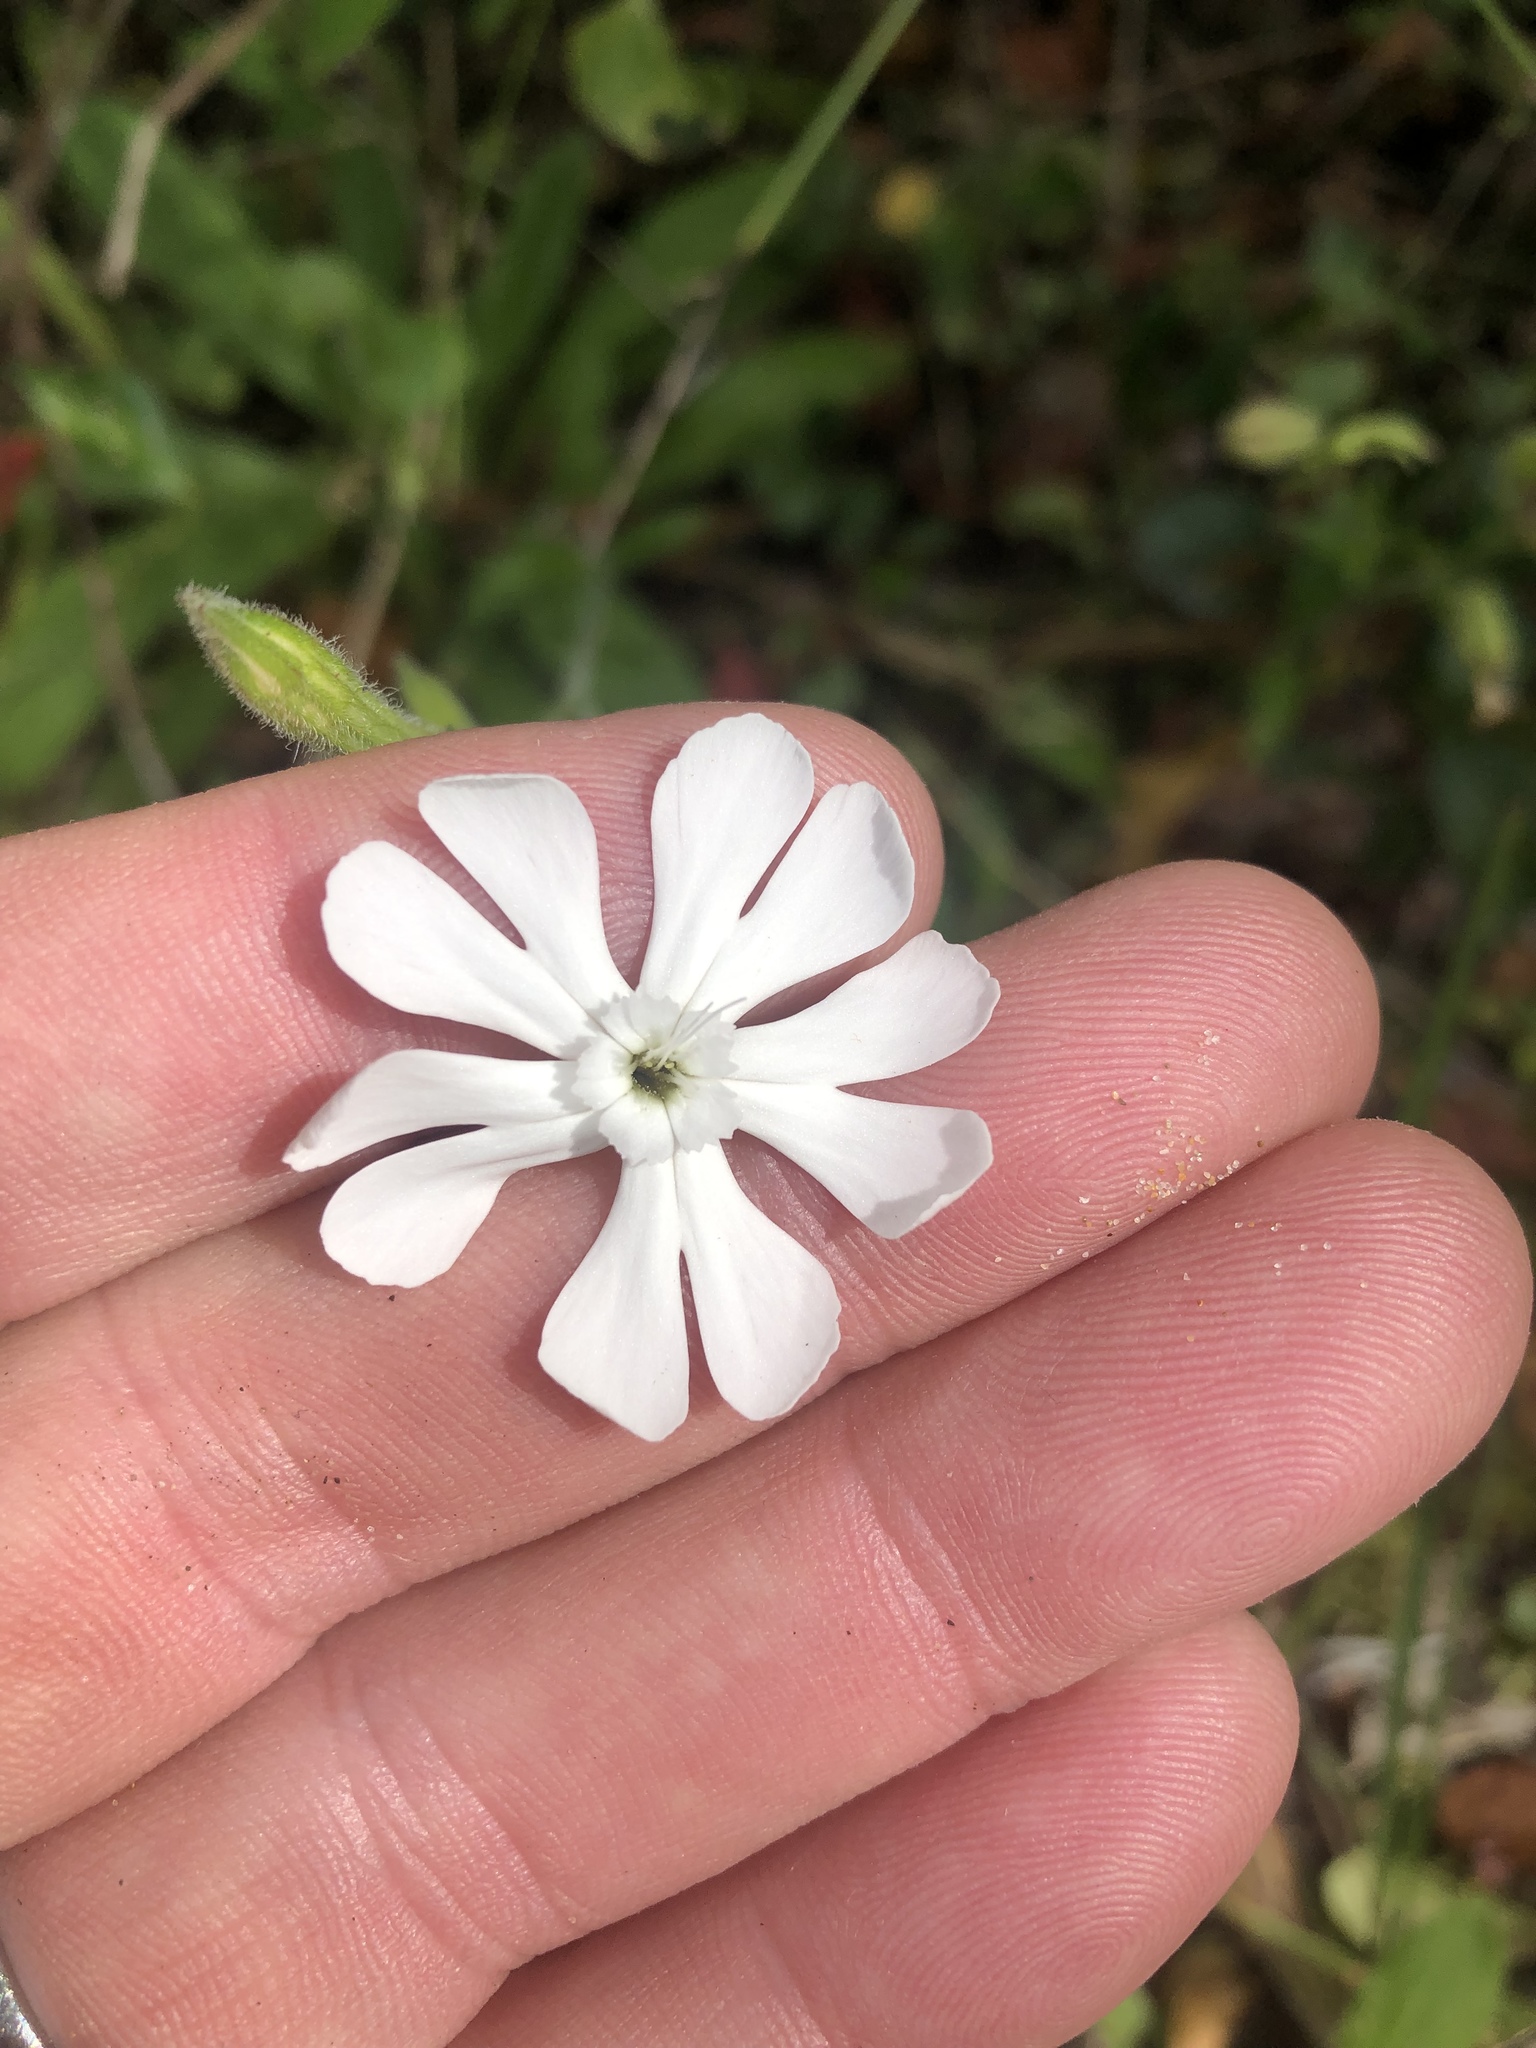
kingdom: Plantae
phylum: Tracheophyta
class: Magnoliopsida
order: Caryophyllales
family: Caryophyllaceae
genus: Silene
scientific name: Silene undulata
